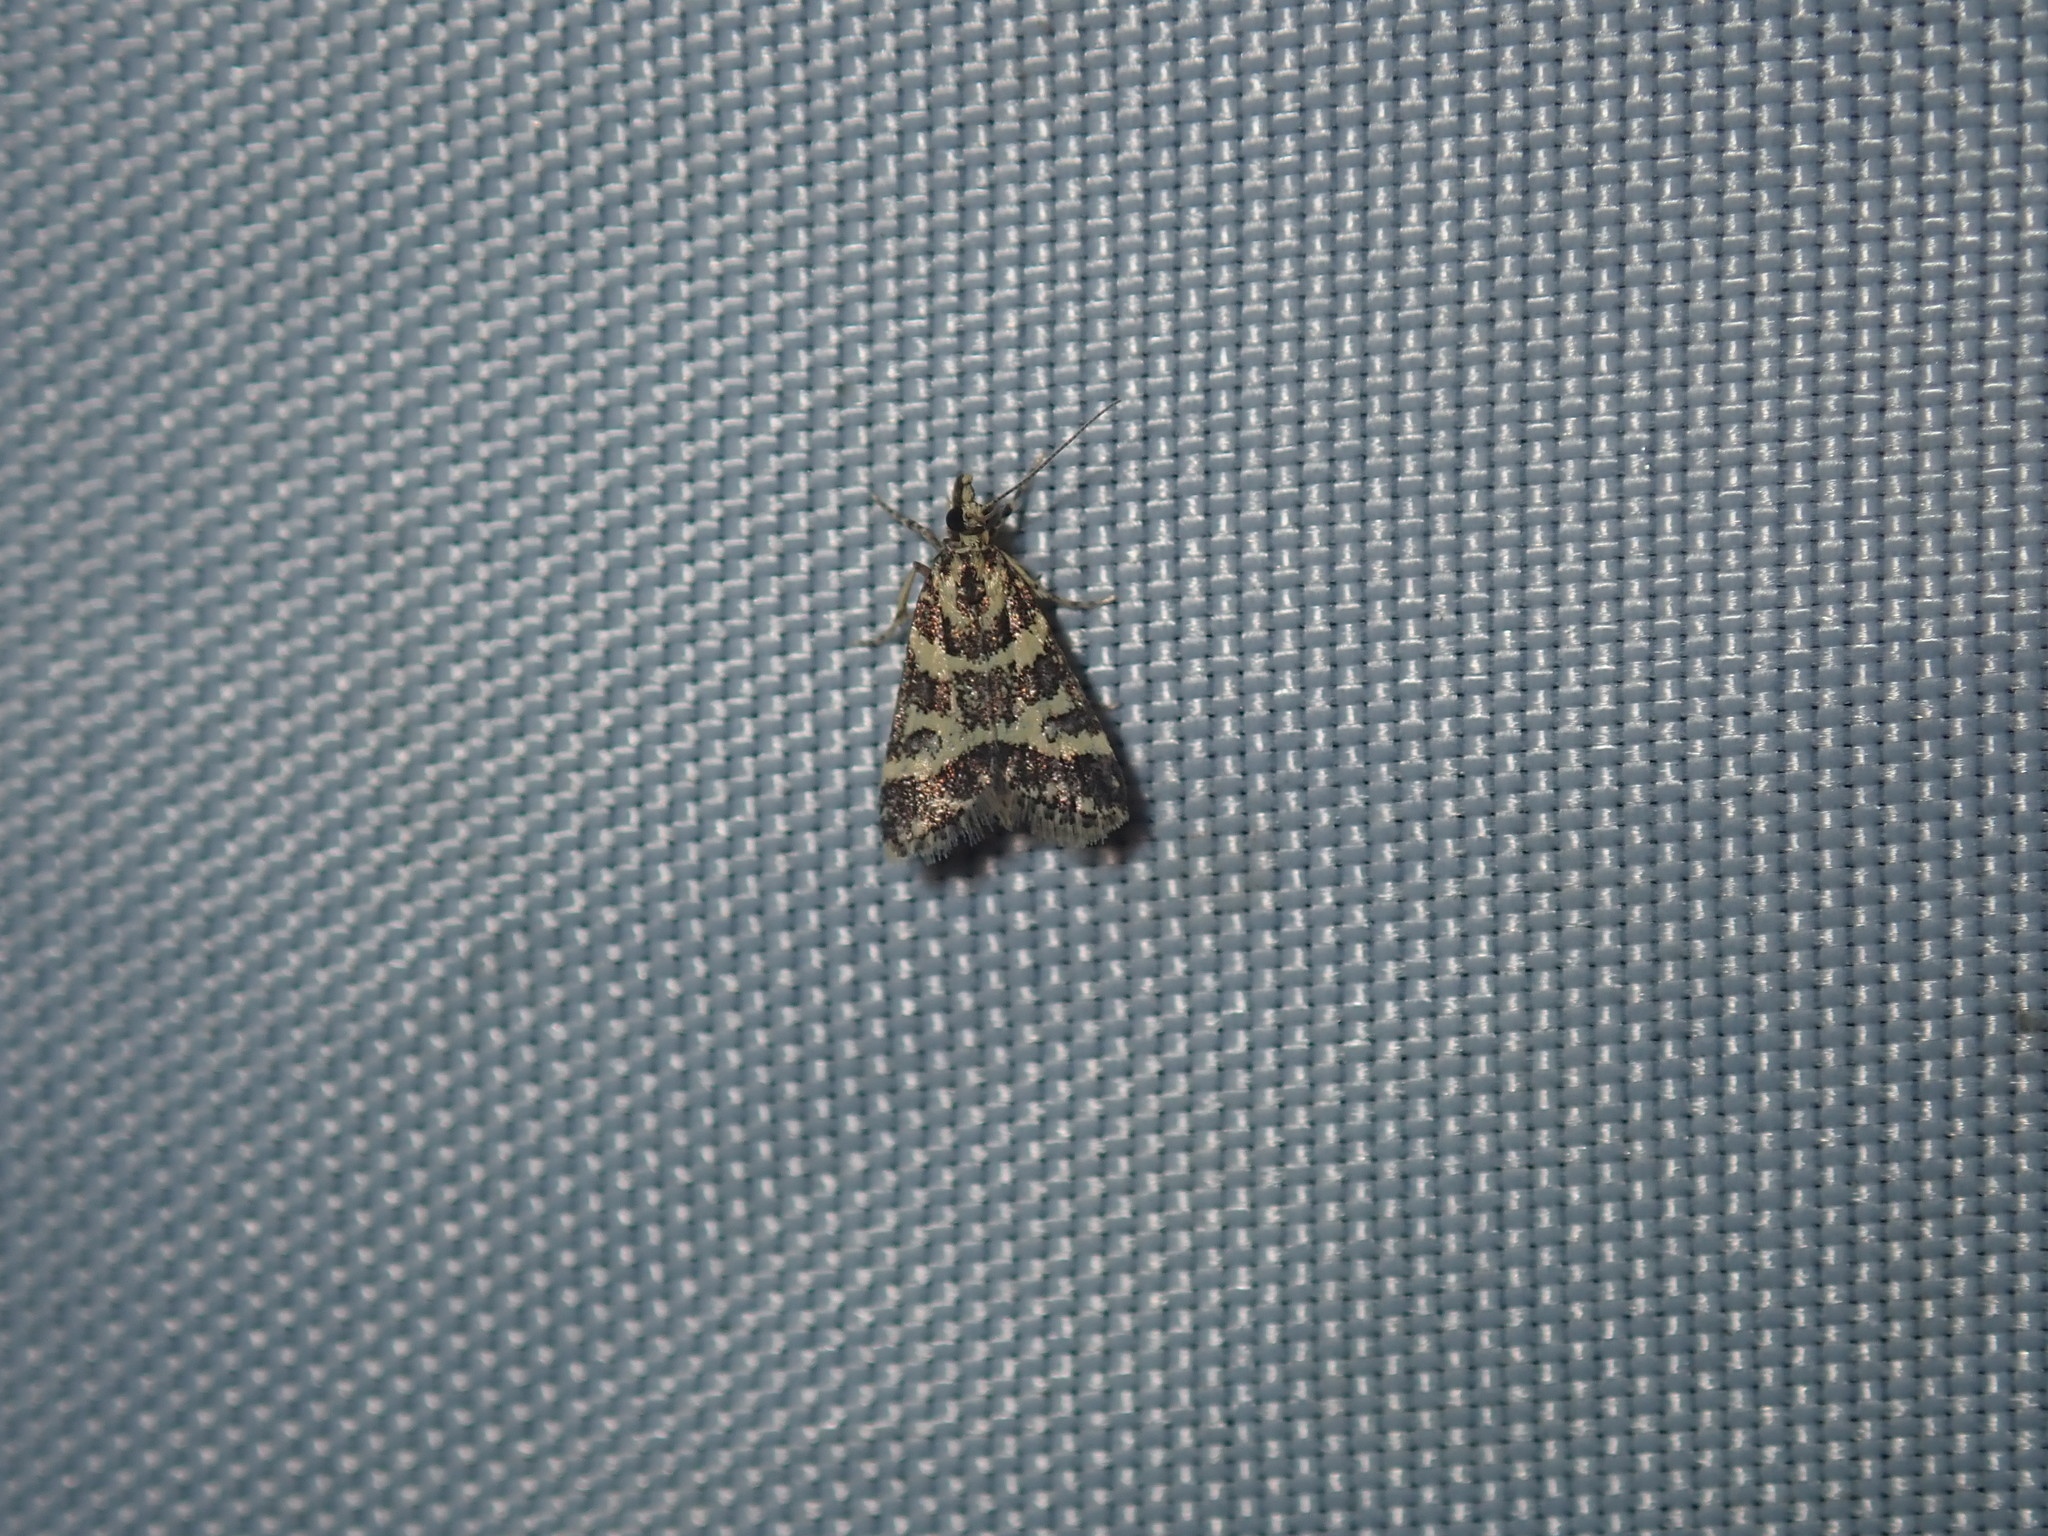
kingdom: Animalia
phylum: Arthropoda
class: Insecta
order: Lepidoptera
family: Crambidae
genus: Scoparia
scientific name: Scoparia spelaea
